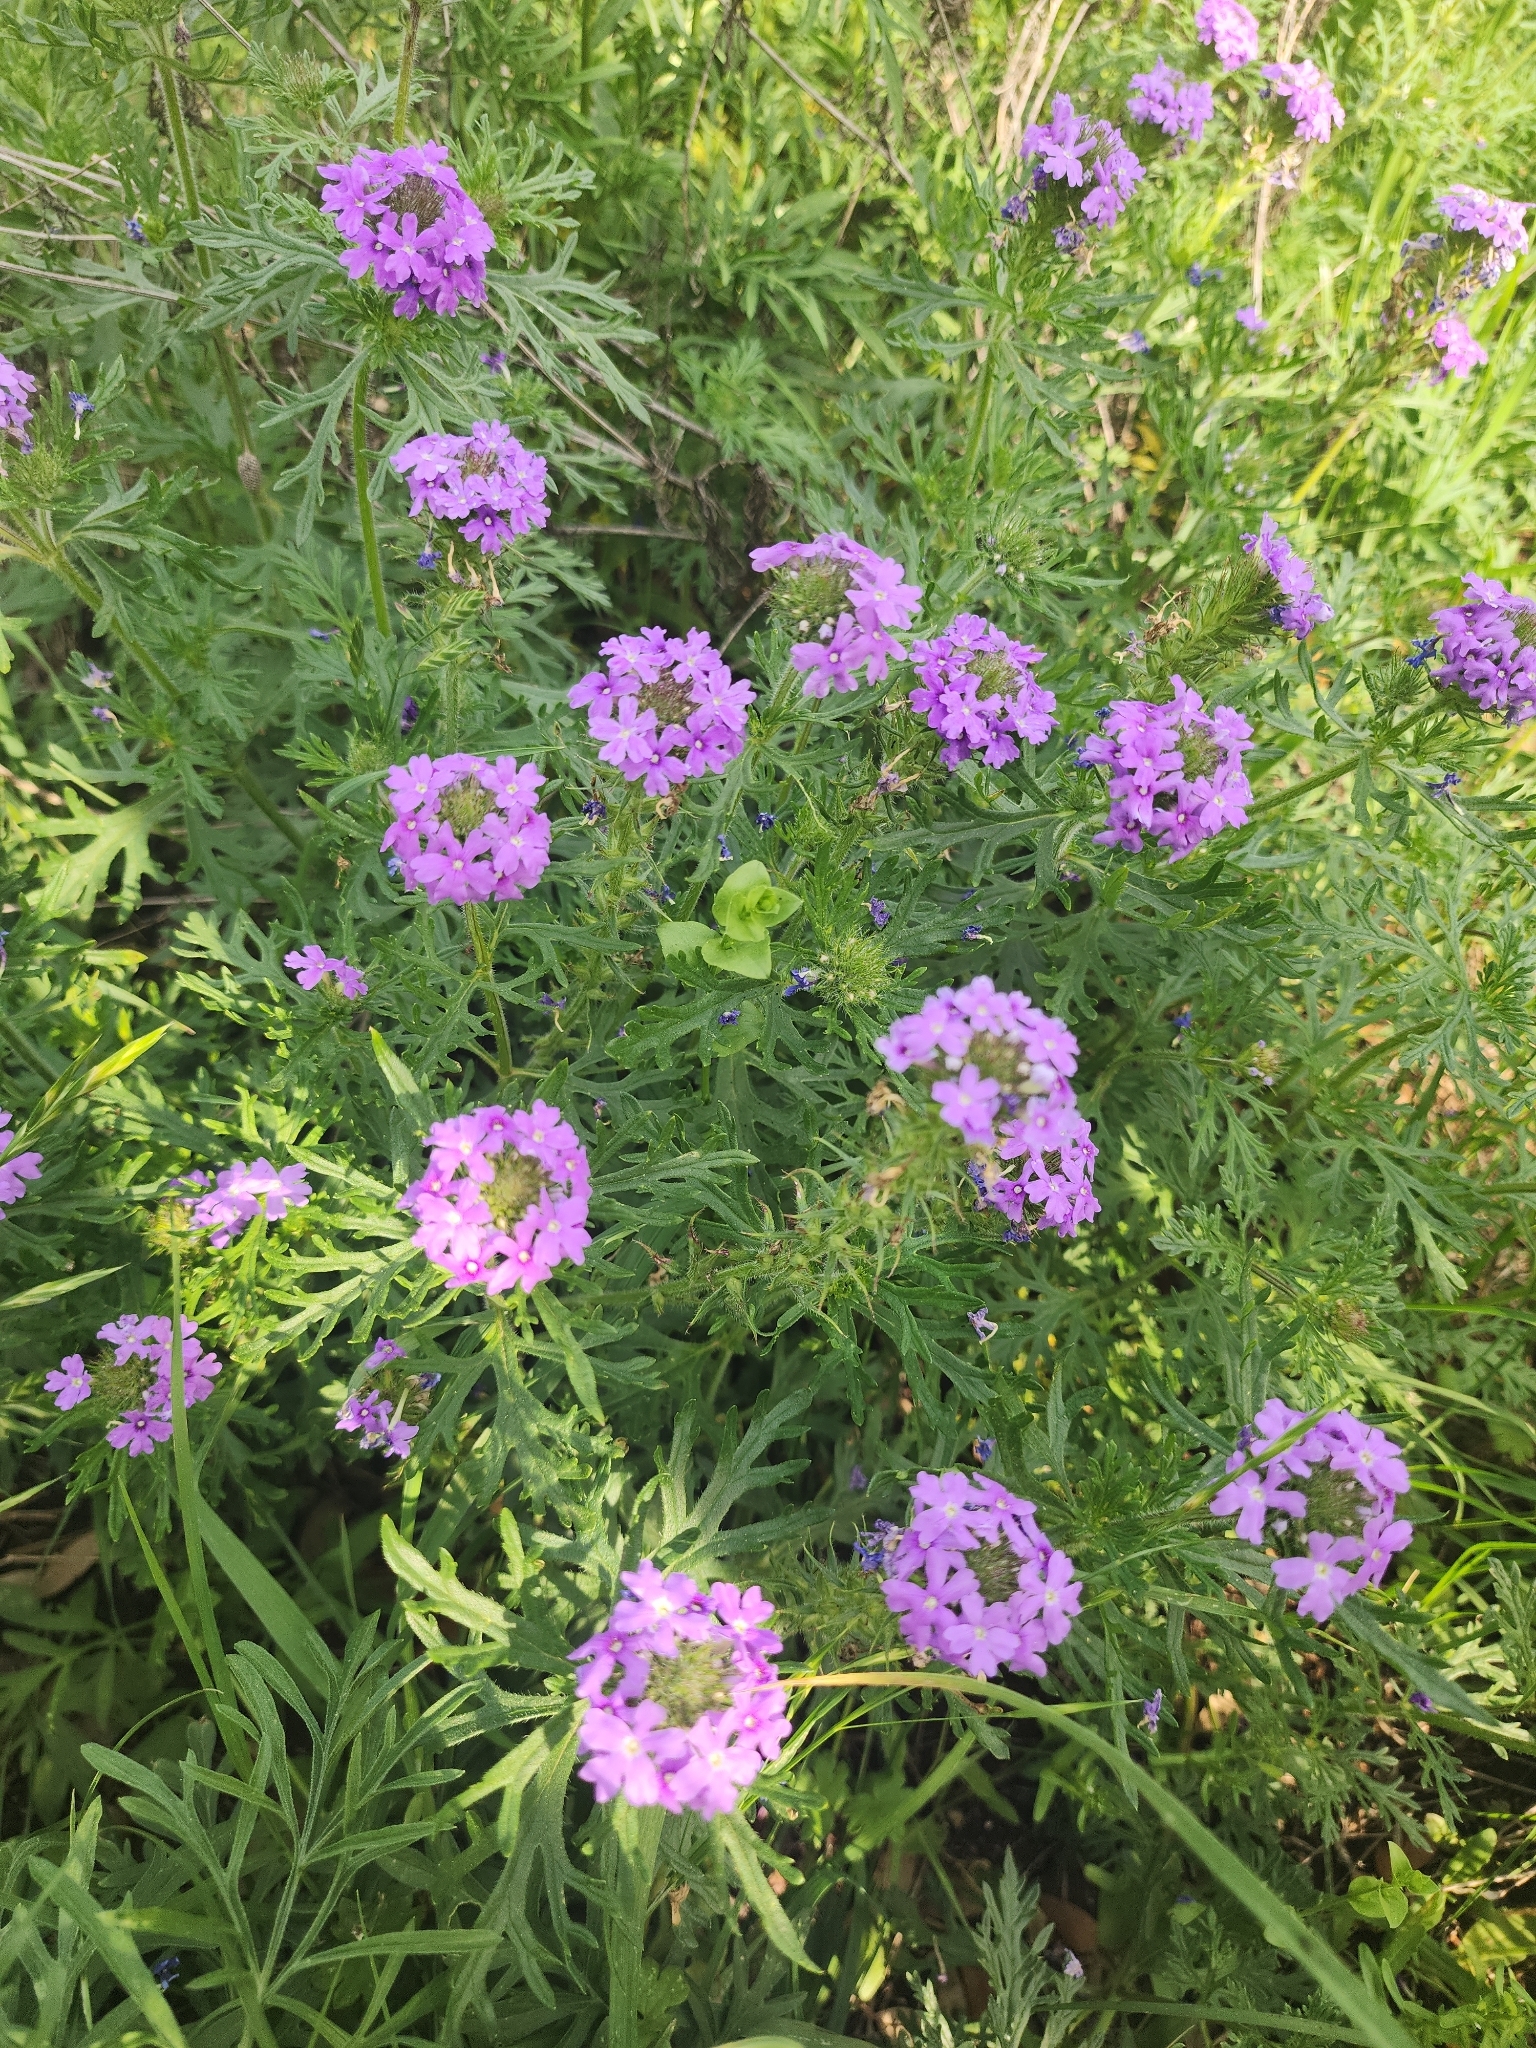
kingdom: Plantae
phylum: Tracheophyta
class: Magnoliopsida
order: Lamiales
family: Verbenaceae
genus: Verbena
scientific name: Verbena bipinnatifida
